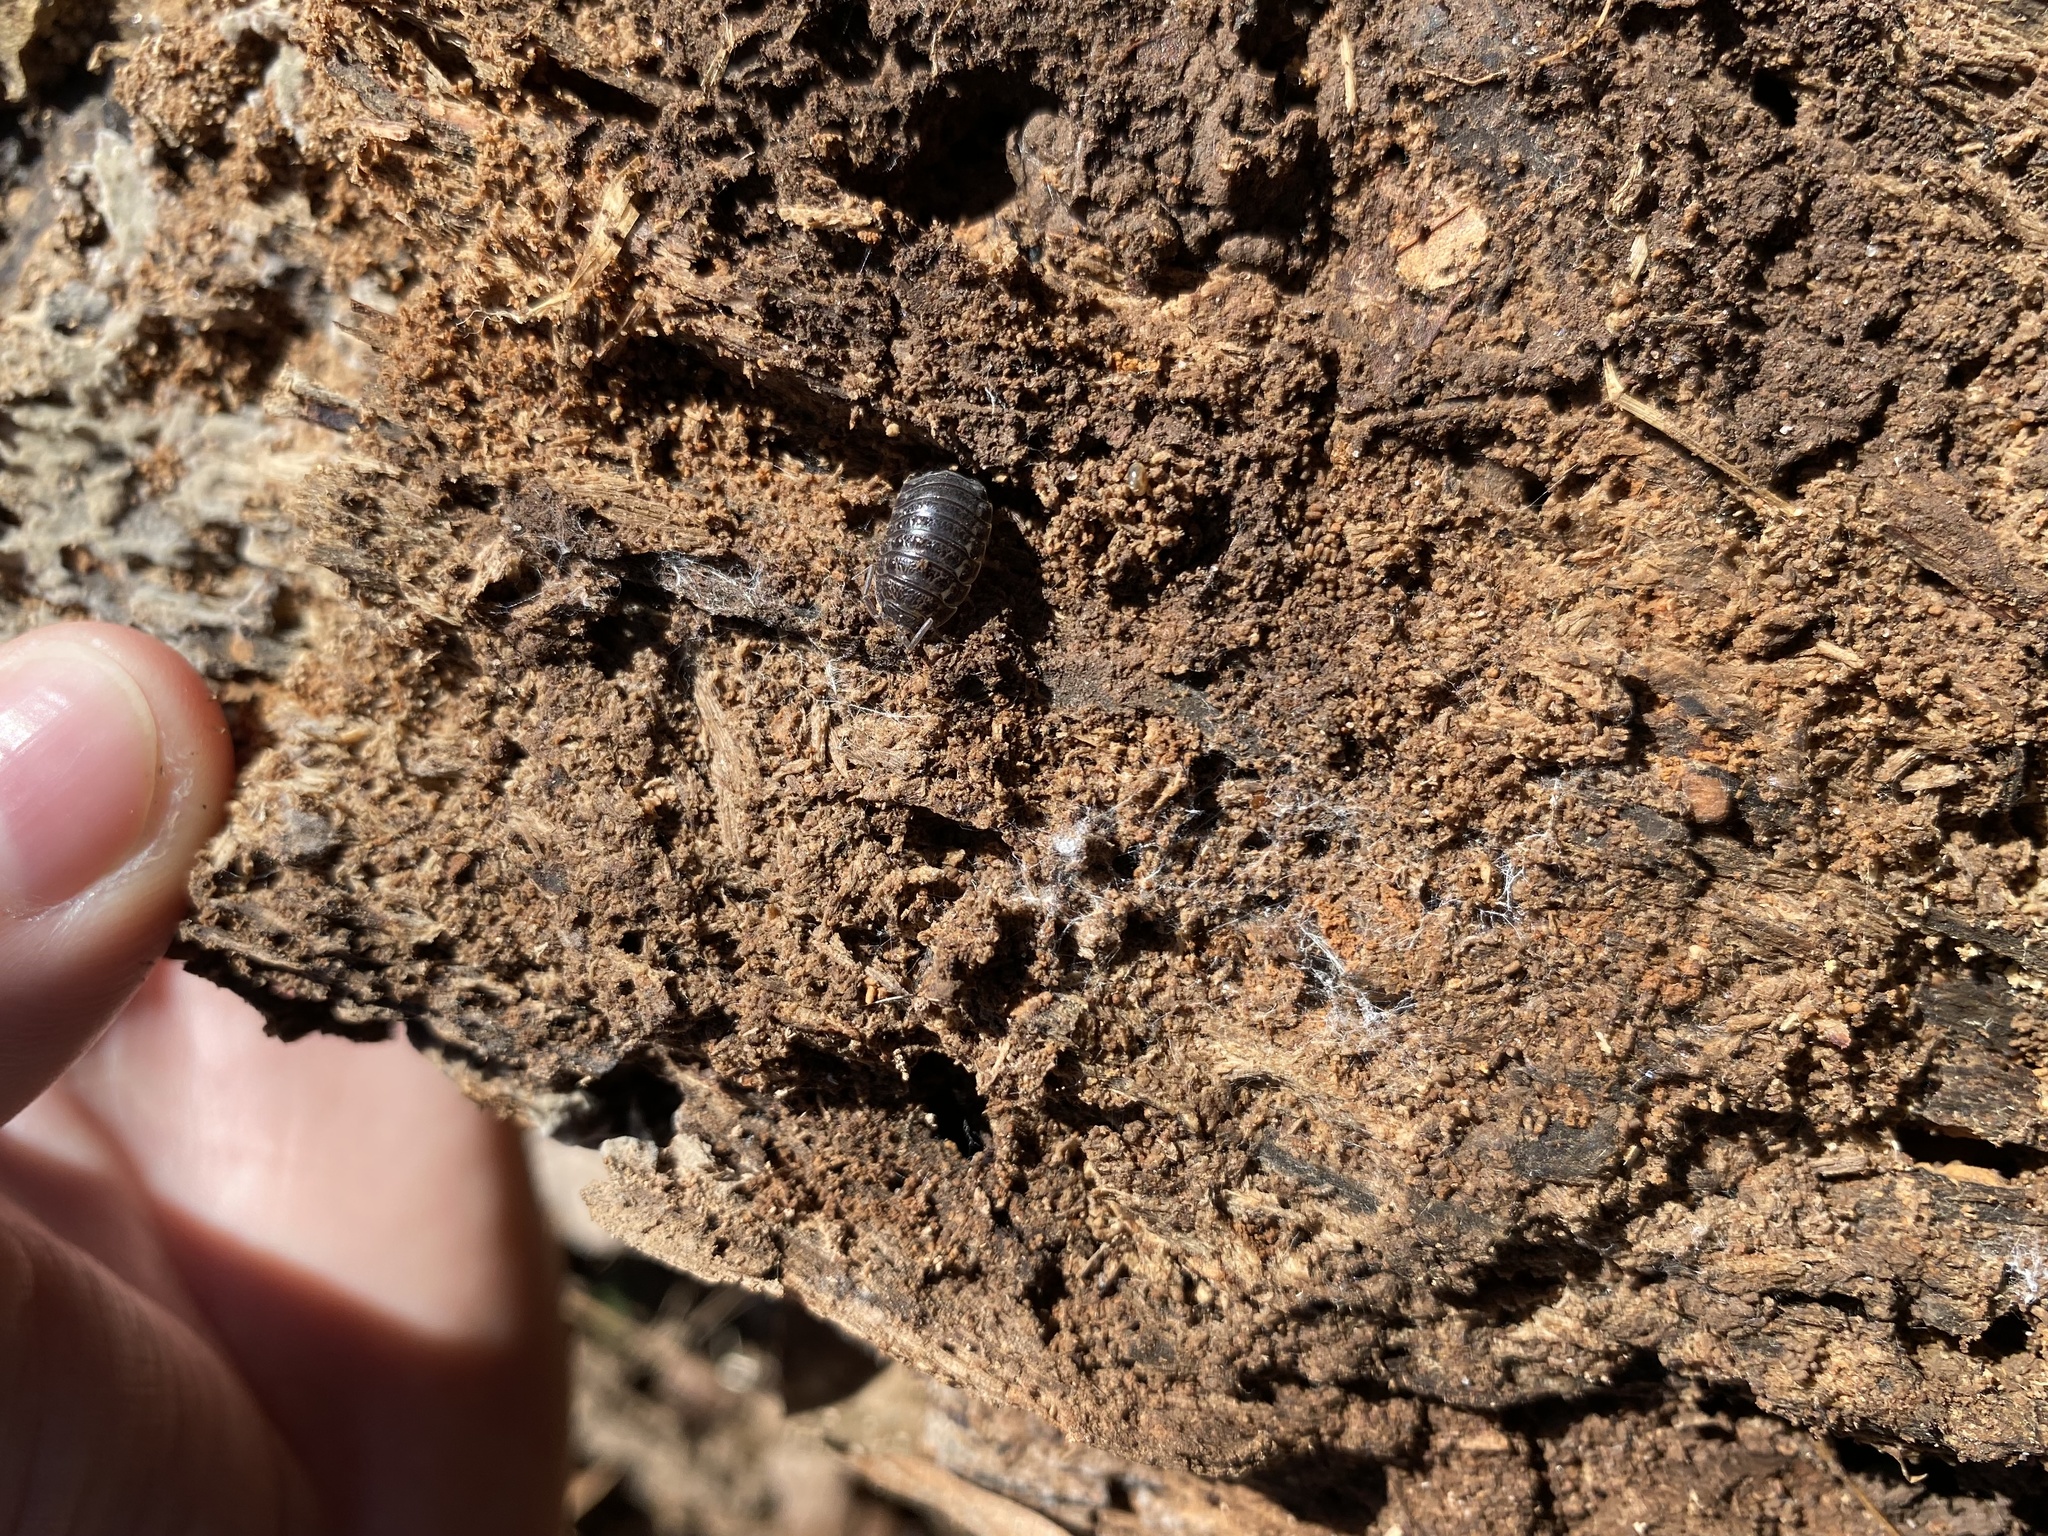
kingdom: Animalia
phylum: Arthropoda
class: Malacostraca
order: Isopoda
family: Trachelipodidae
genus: Trachelipus
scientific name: Trachelipus rathkii
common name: Isopod
